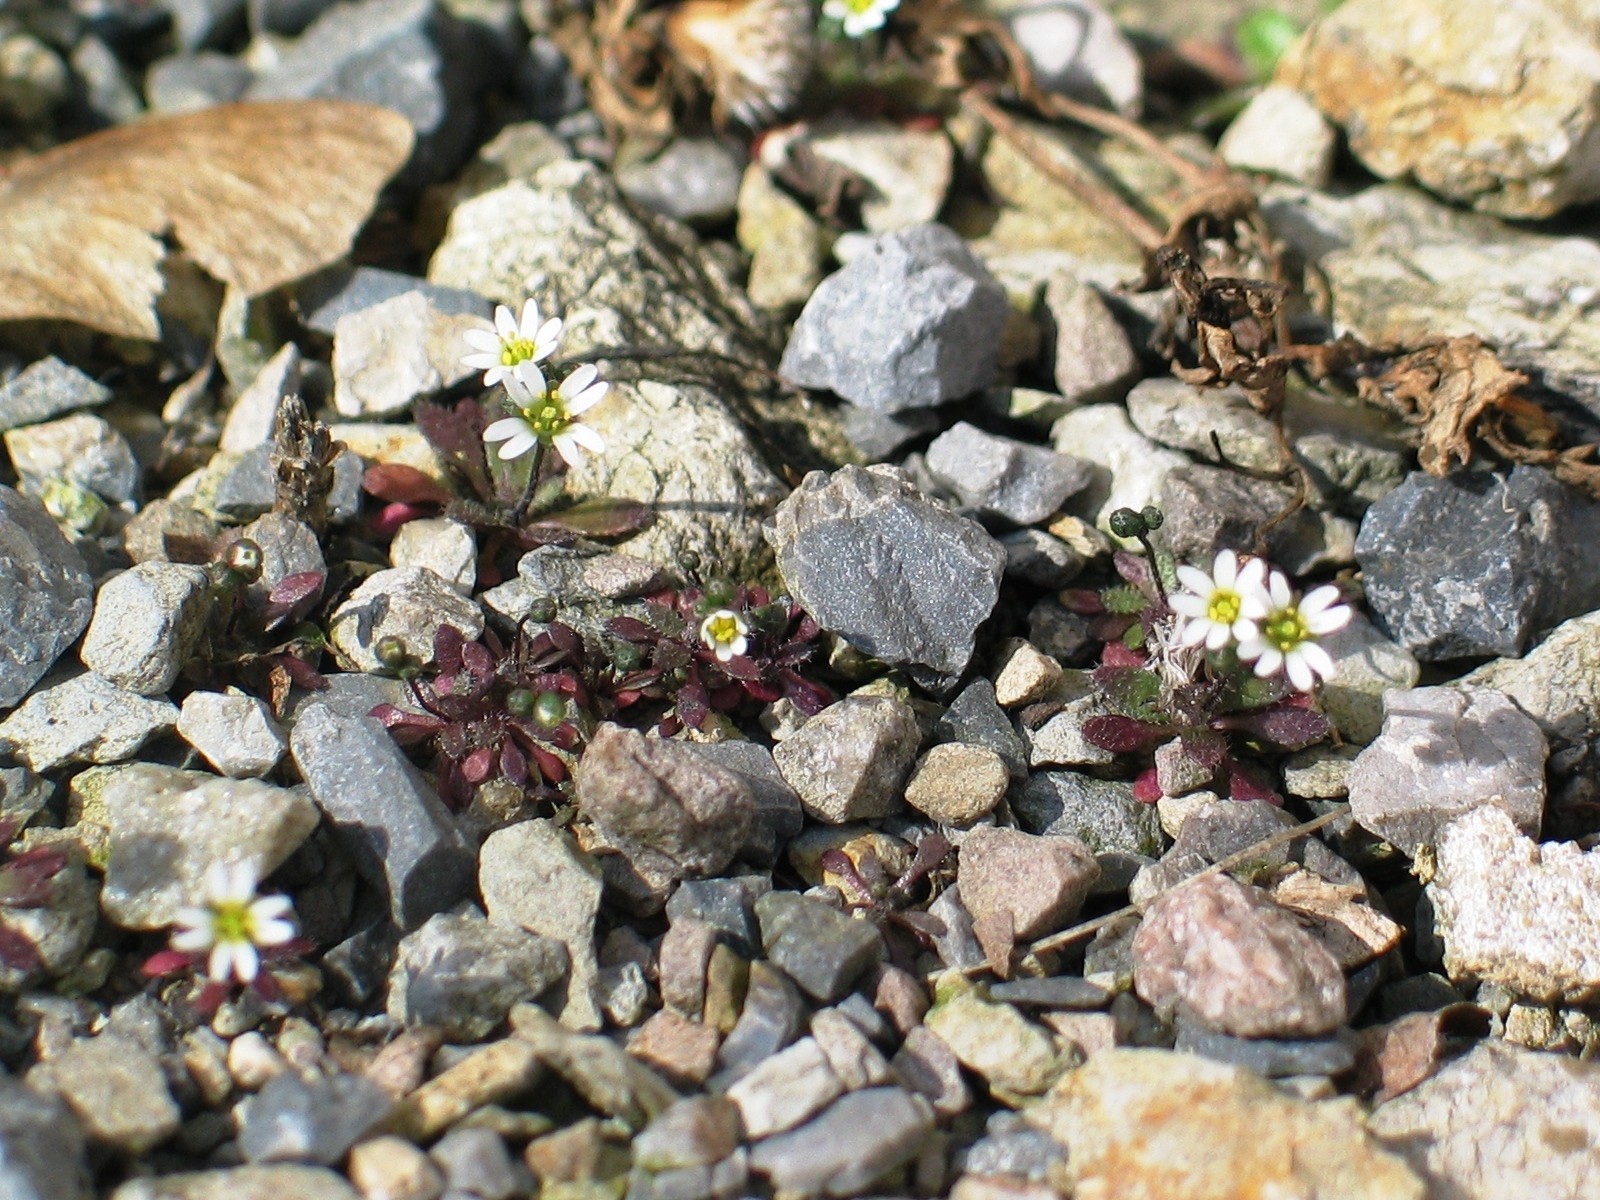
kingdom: Plantae
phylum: Tracheophyta
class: Magnoliopsida
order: Brassicales
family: Brassicaceae
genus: Draba
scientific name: Draba verna
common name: Spring draba
